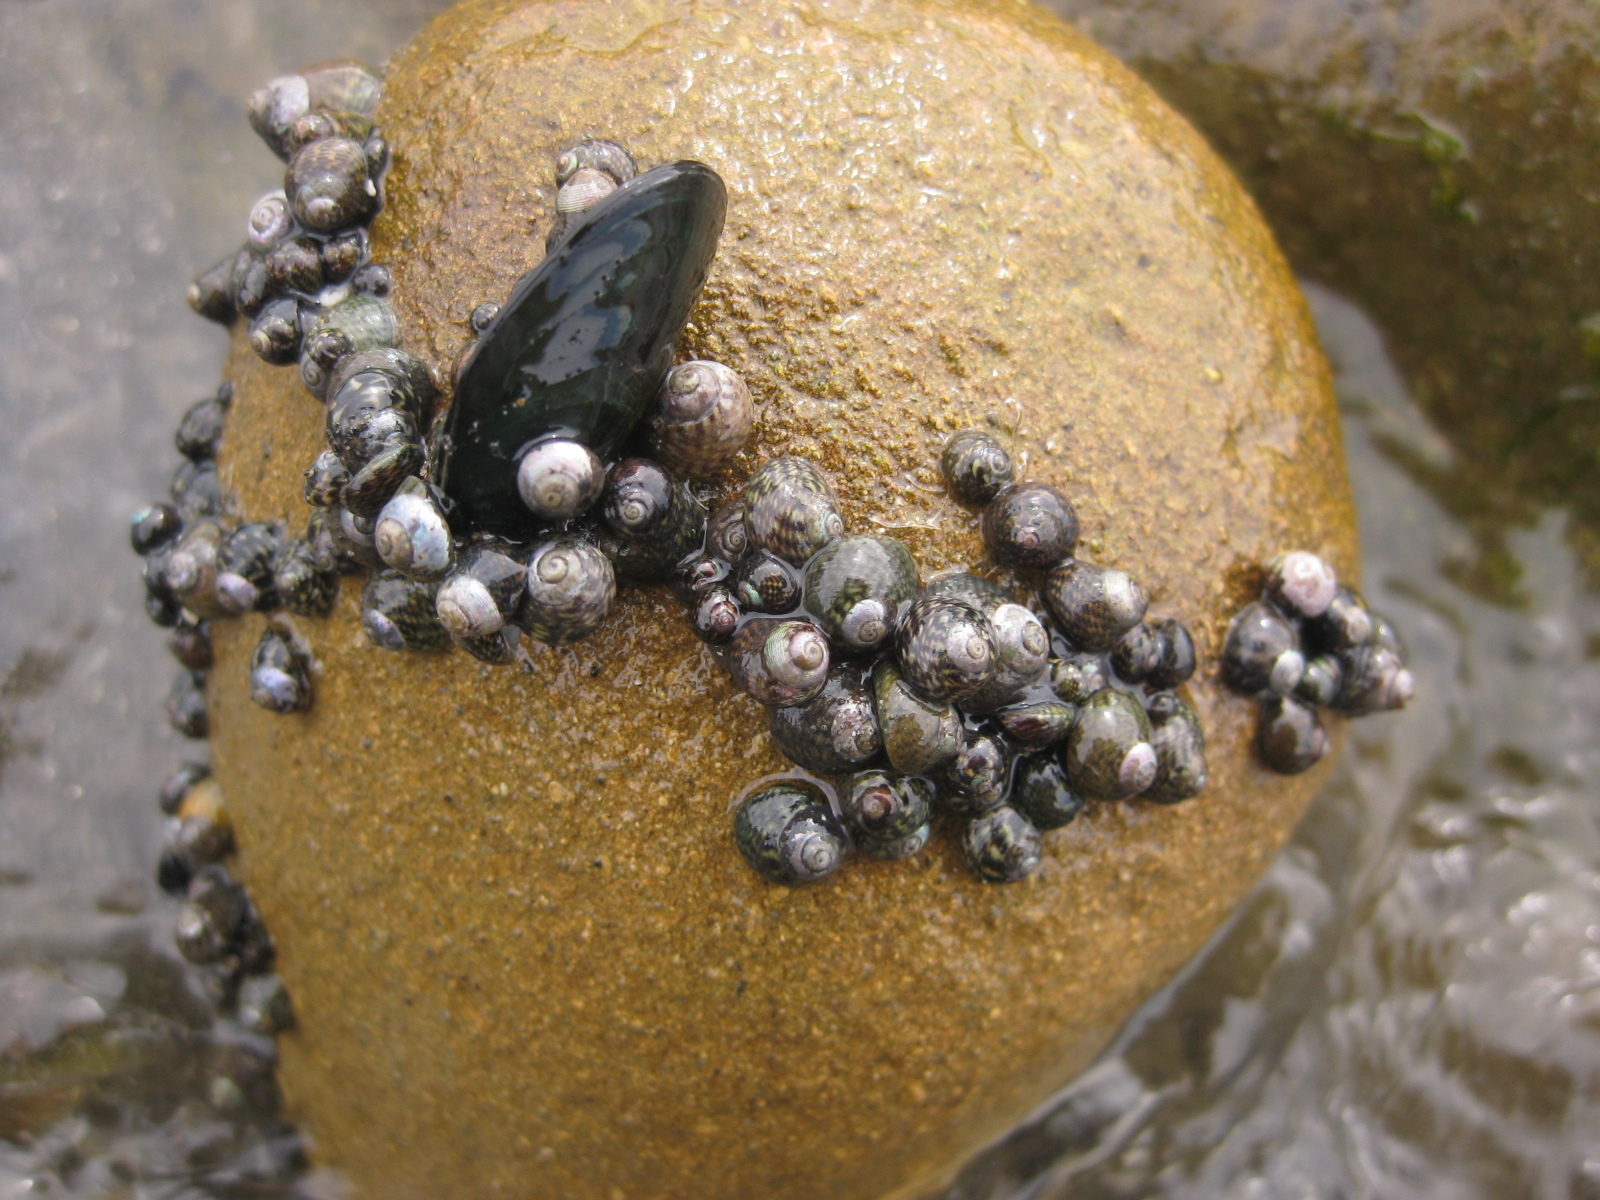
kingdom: Animalia
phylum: Mollusca
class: Gastropoda
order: Trochida
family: Trochidae
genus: Micrelenchus
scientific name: Micrelenchus tessellatus
